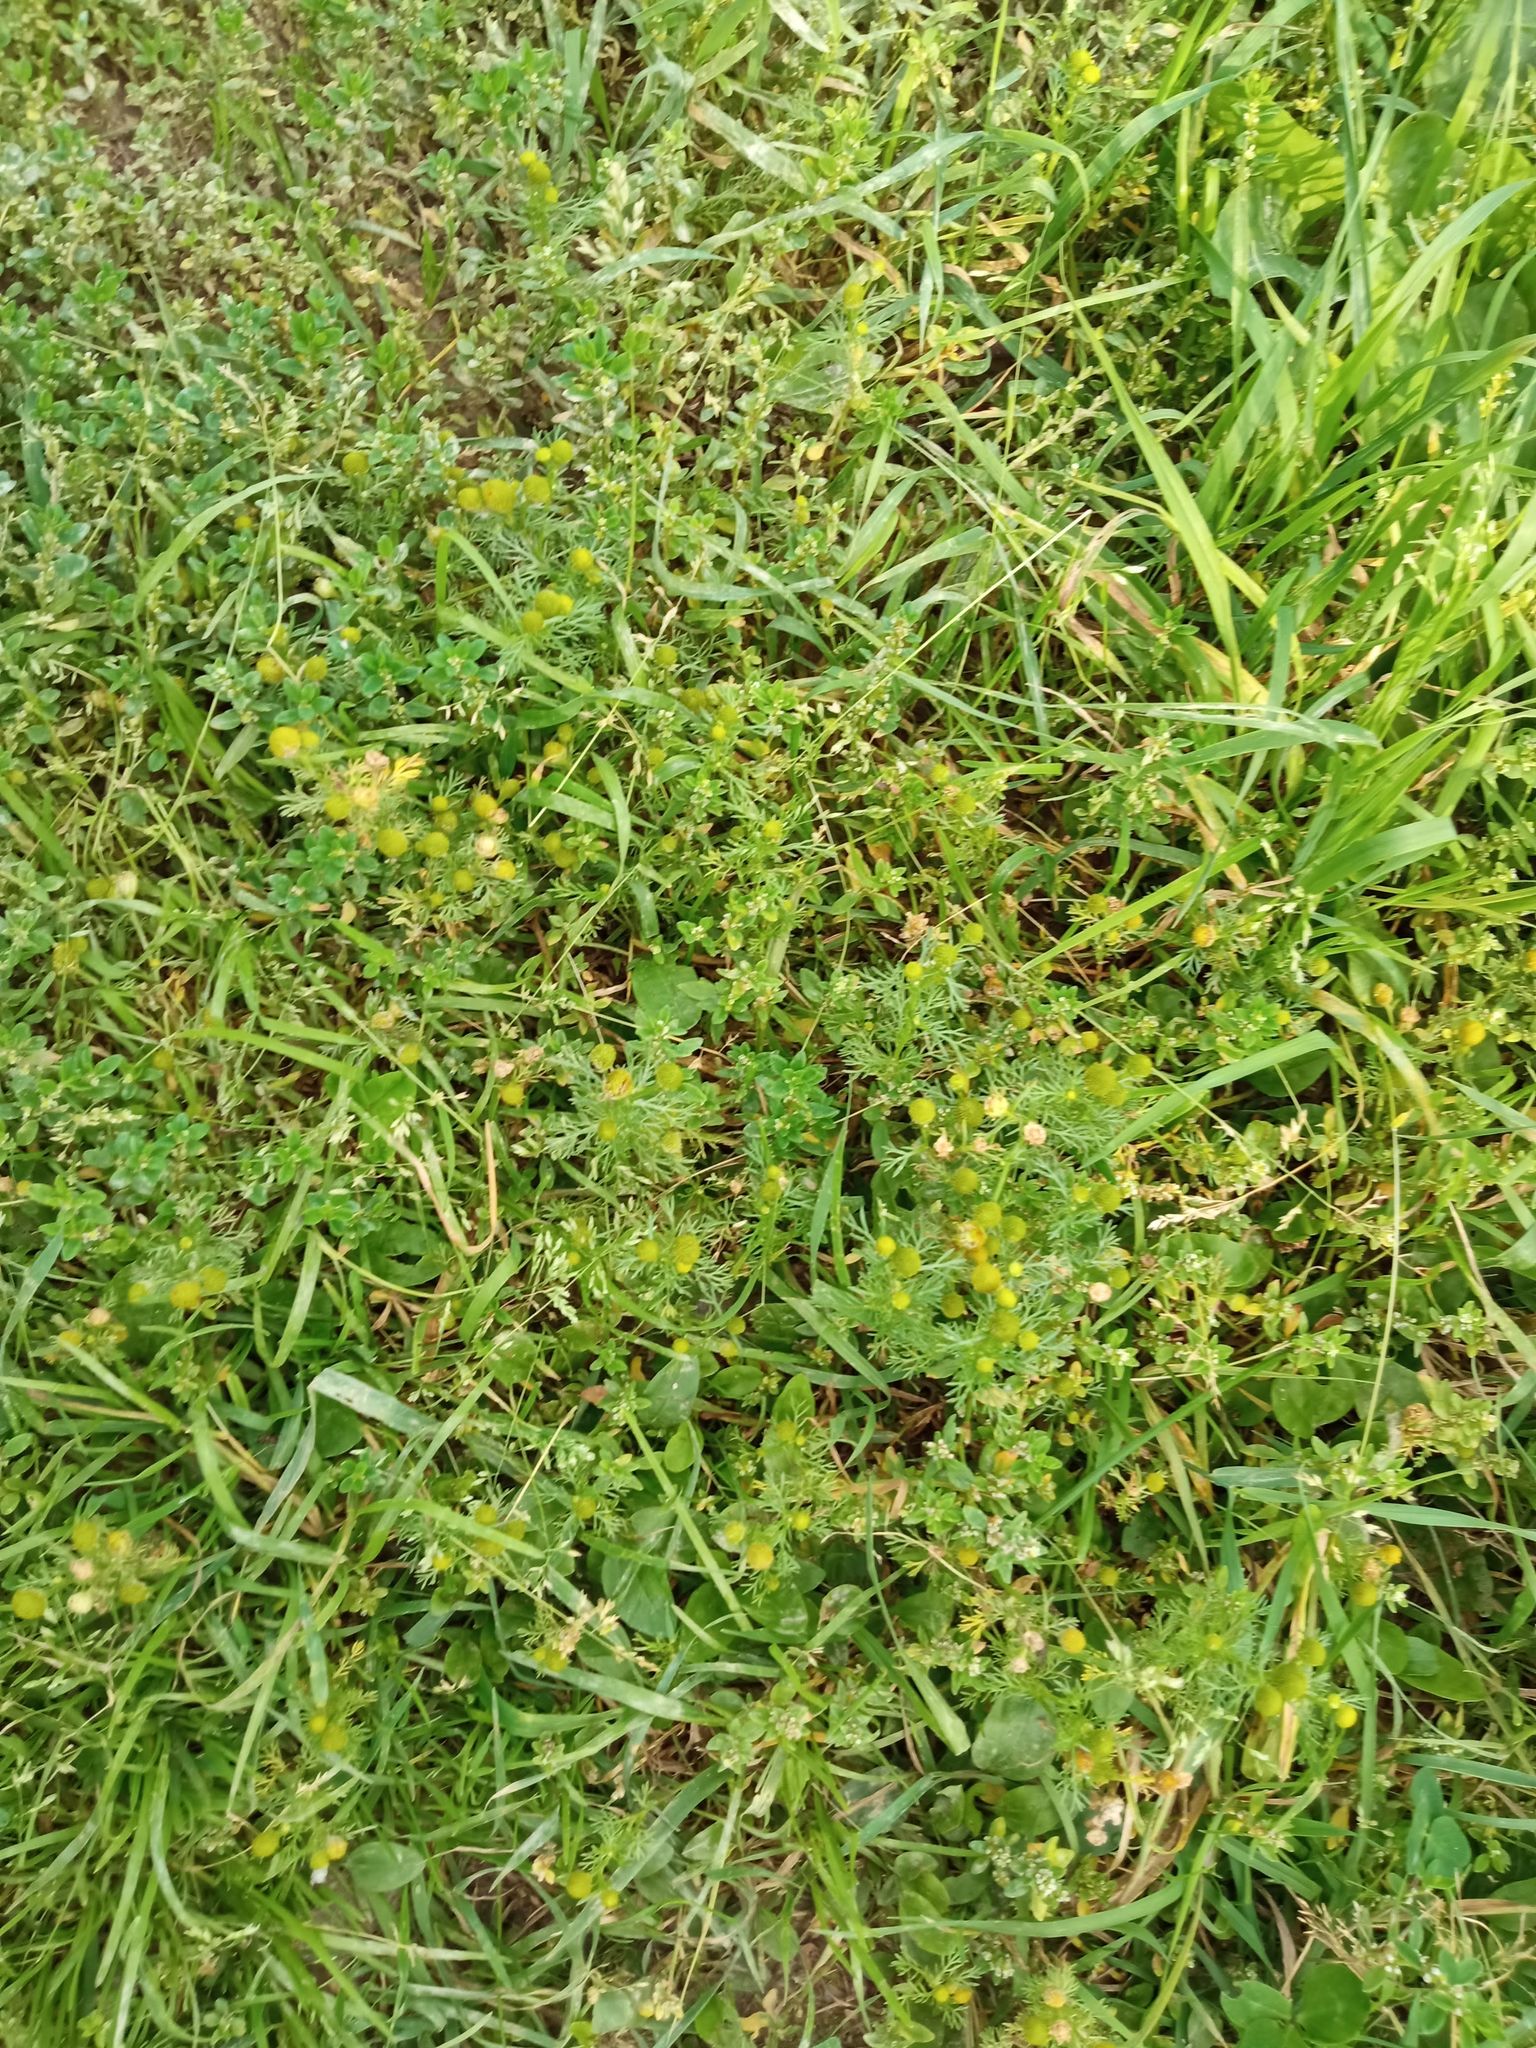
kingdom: Plantae
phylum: Tracheophyta
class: Magnoliopsida
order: Asterales
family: Asteraceae
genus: Matricaria
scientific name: Matricaria discoidea
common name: Disc mayweed
